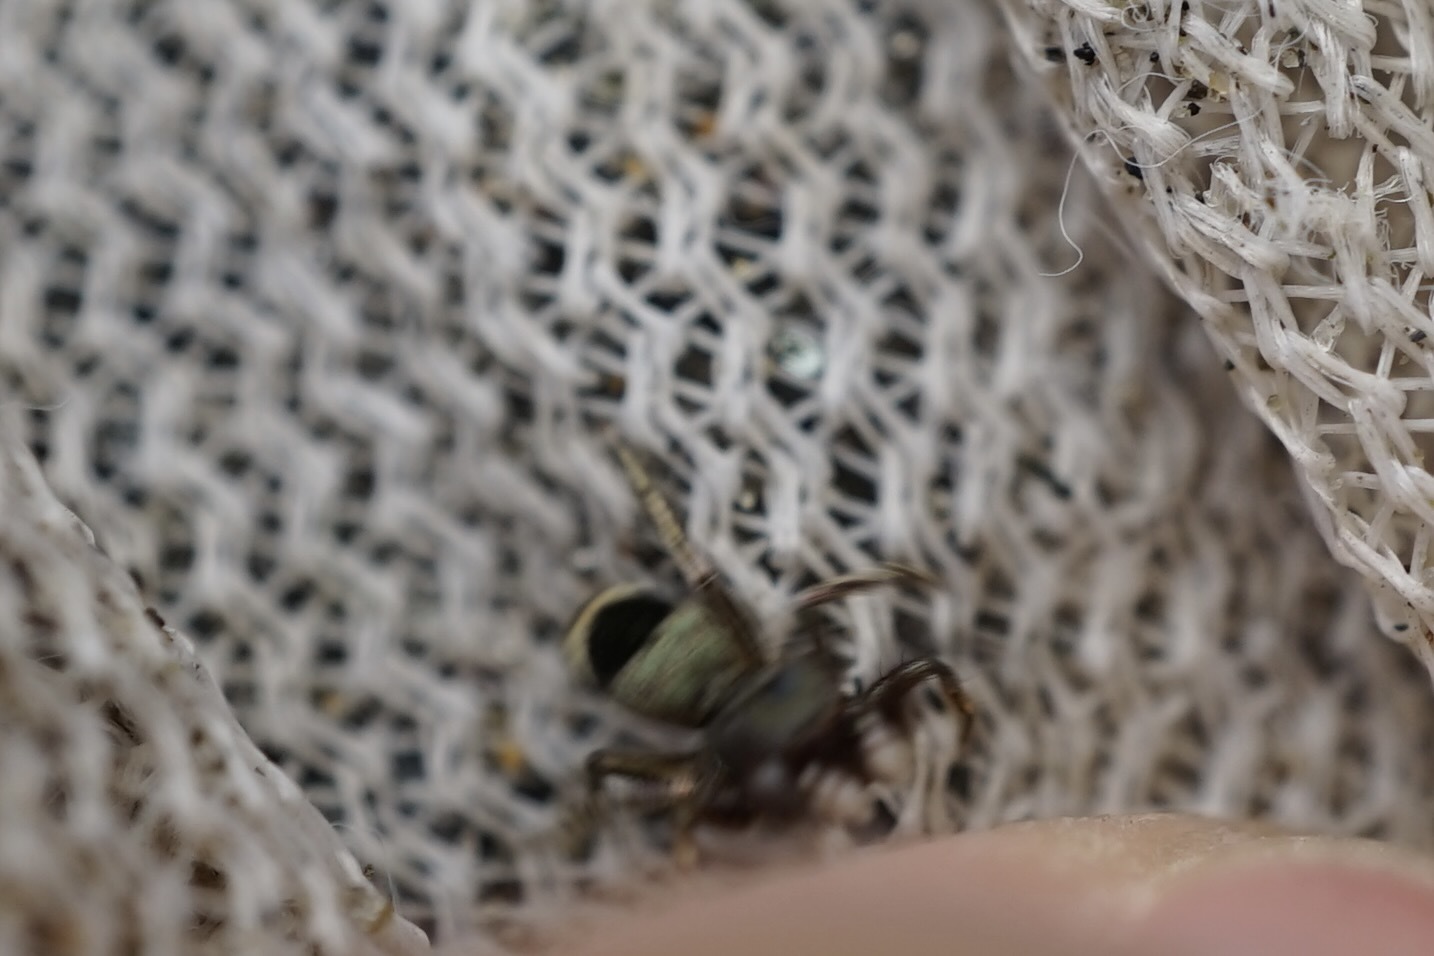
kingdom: Animalia
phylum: Arthropoda
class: Arachnida
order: Araneae
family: Salticidae
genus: Siler
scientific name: Siler cupreus
